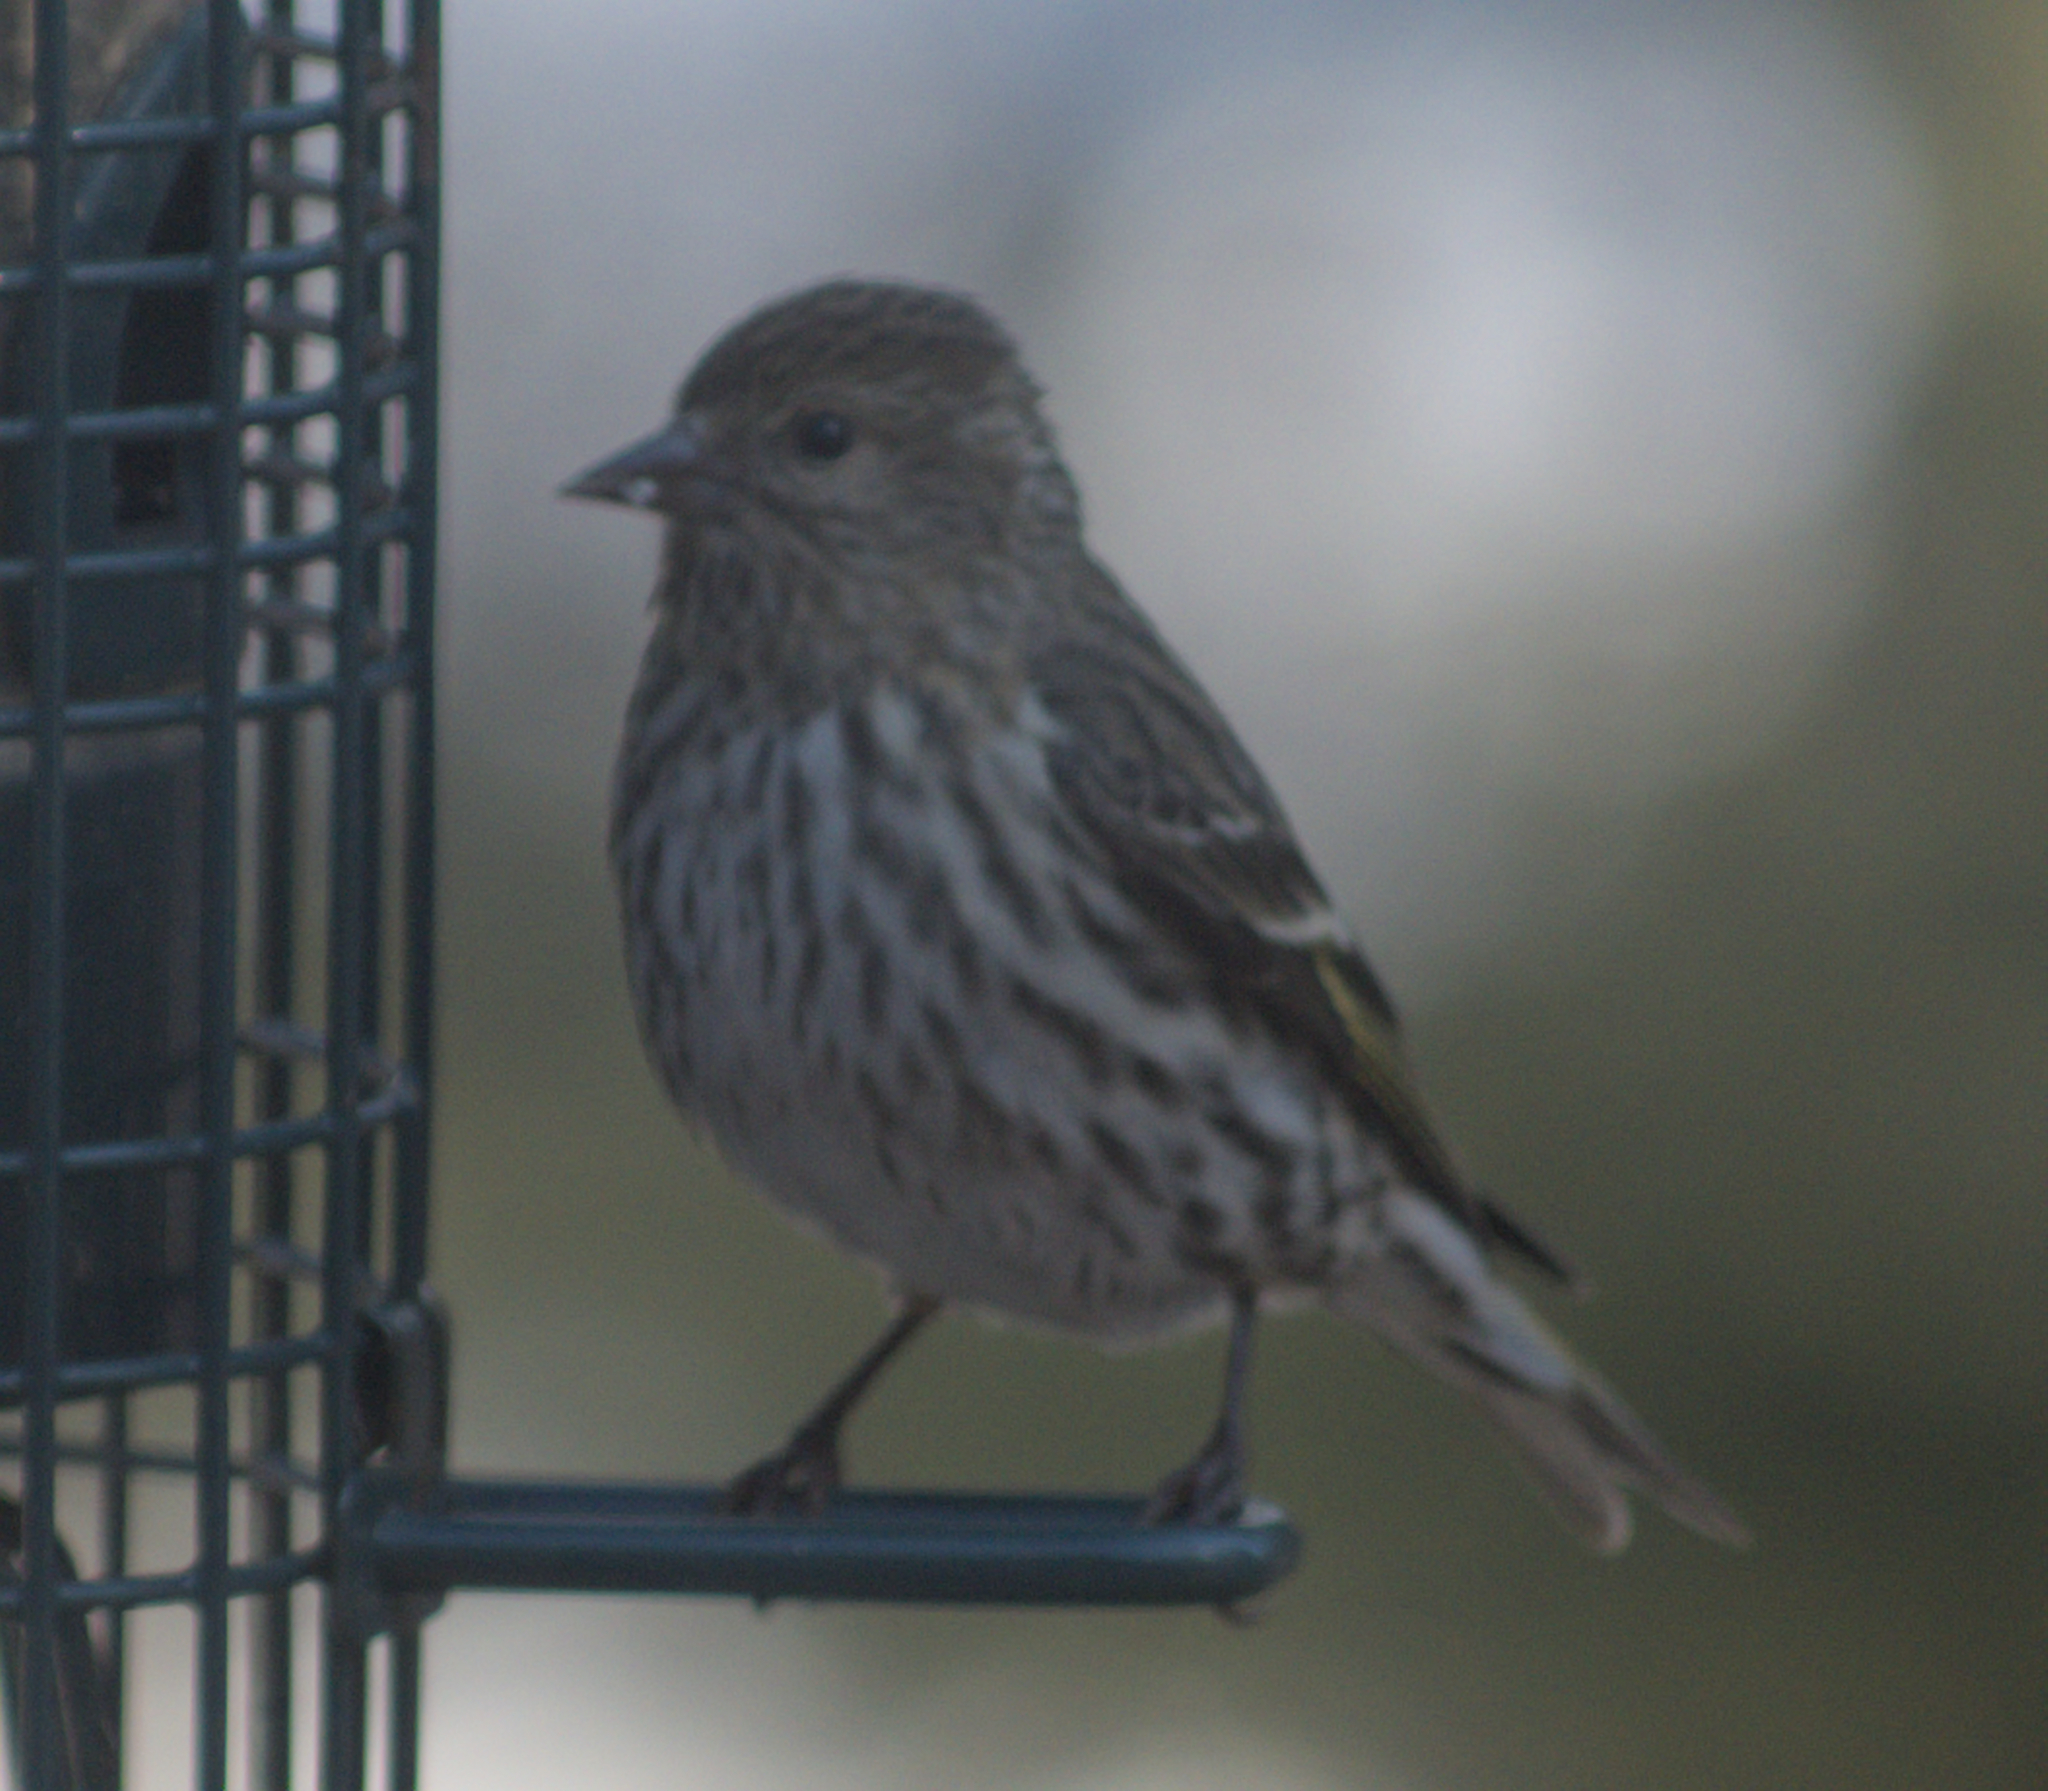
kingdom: Animalia
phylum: Chordata
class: Aves
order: Passeriformes
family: Fringillidae
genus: Spinus
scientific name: Spinus pinus
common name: Pine siskin
